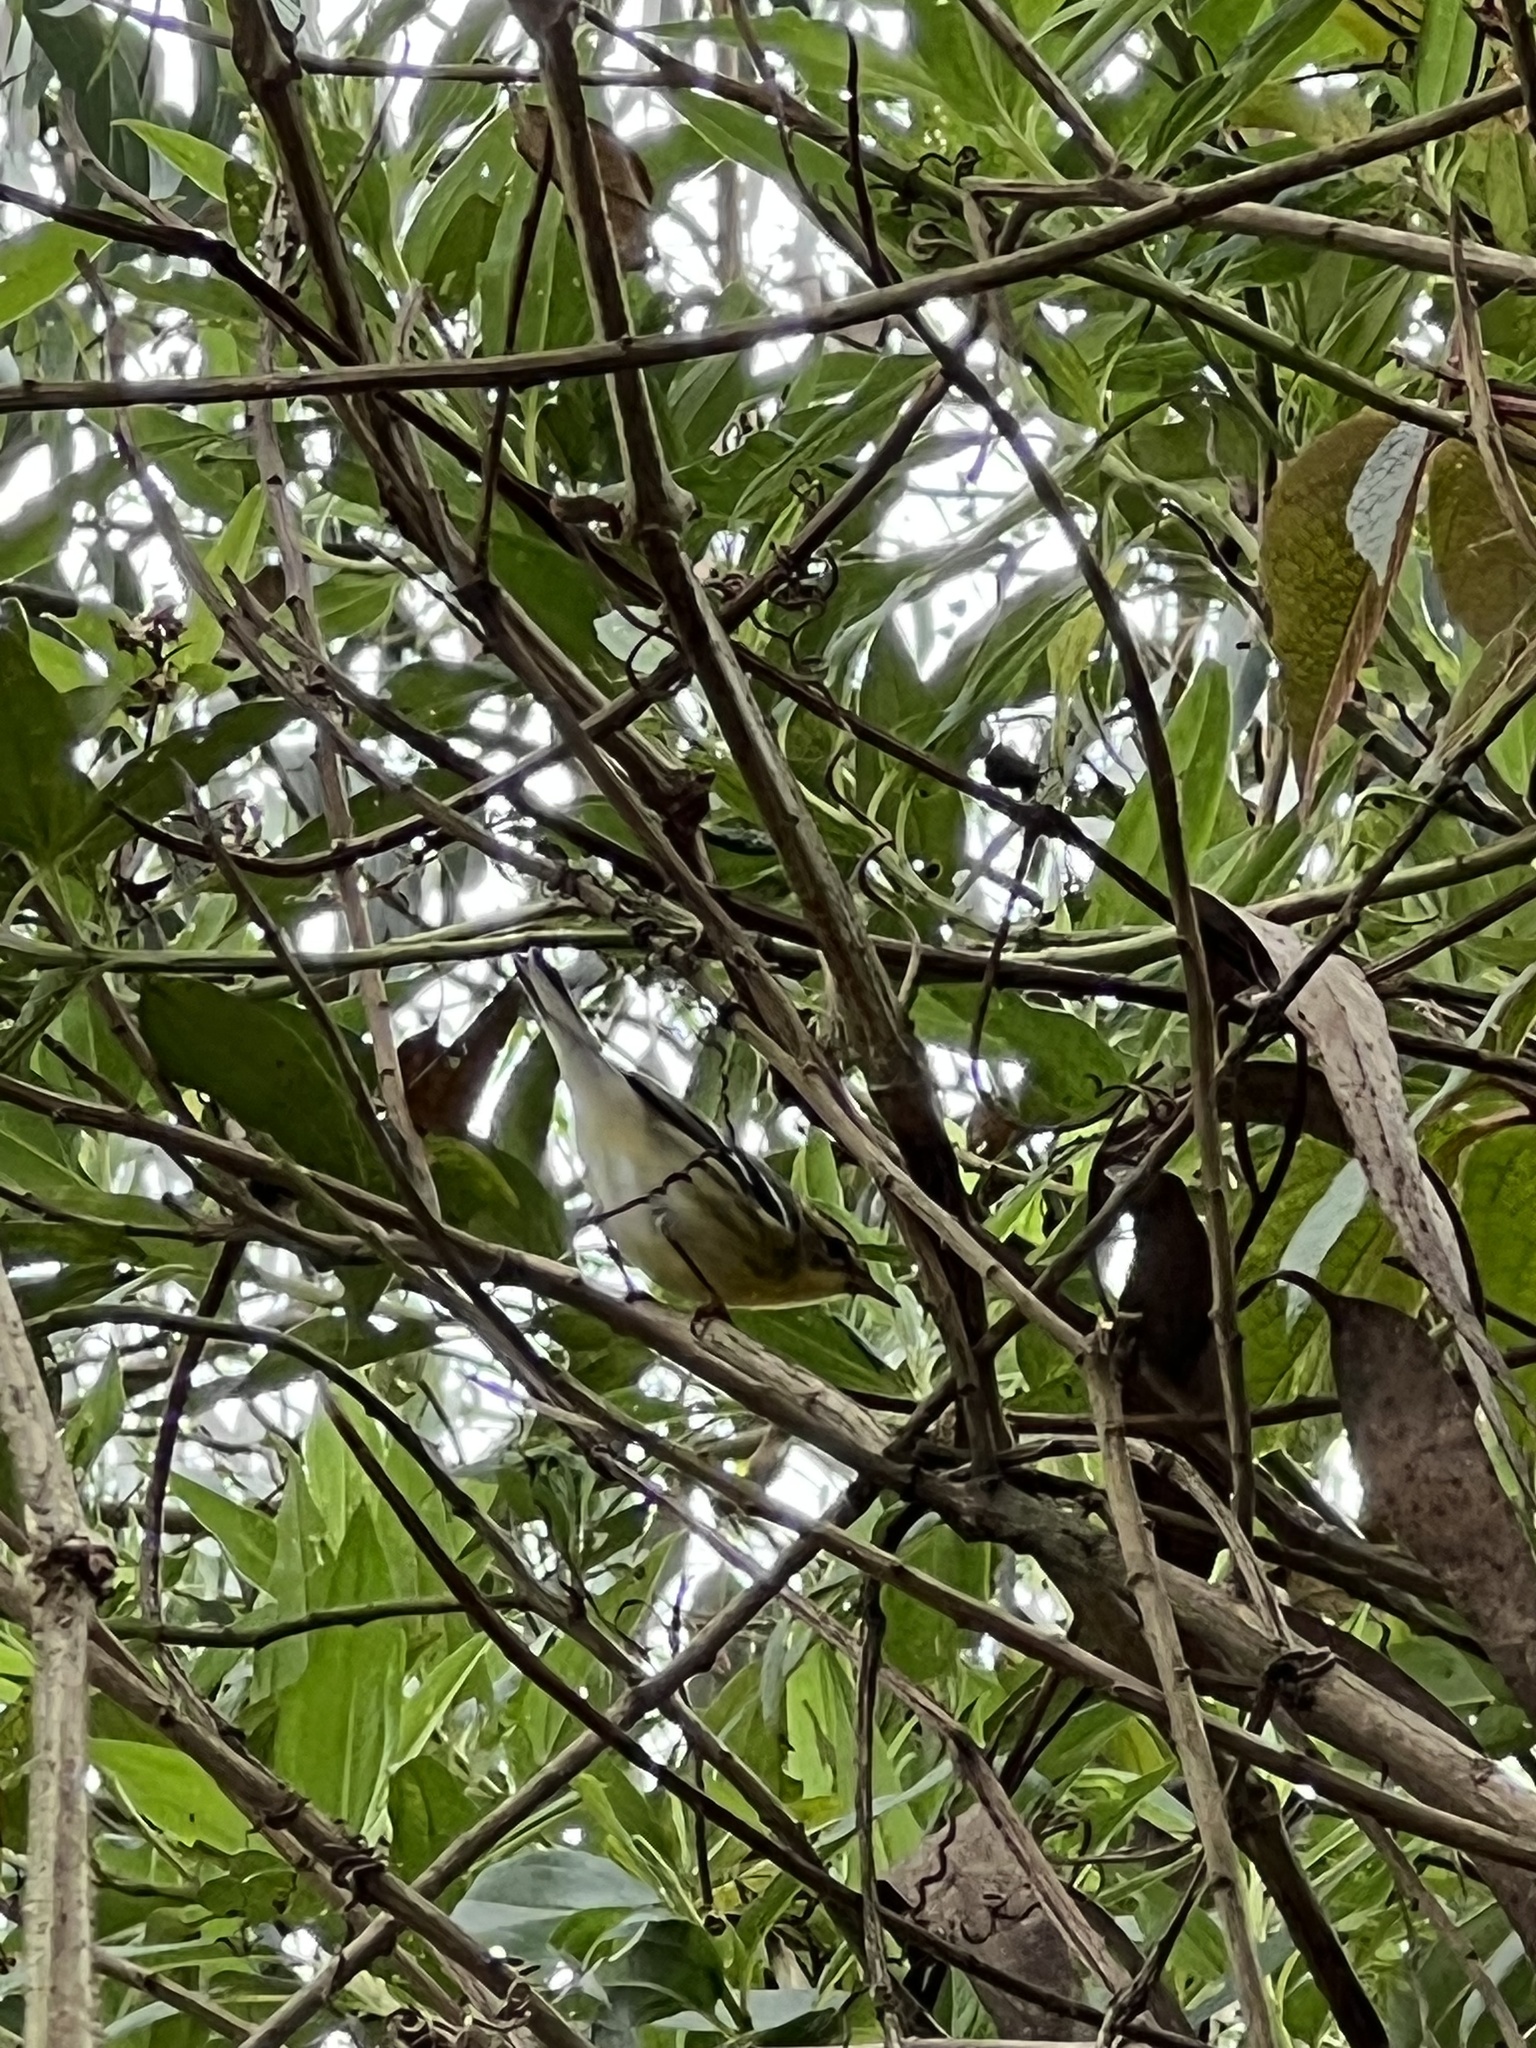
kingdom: Animalia
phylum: Chordata
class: Aves
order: Passeriformes
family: Parulidae
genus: Setophaga
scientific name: Setophaga fusca
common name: Blackburnian warbler
